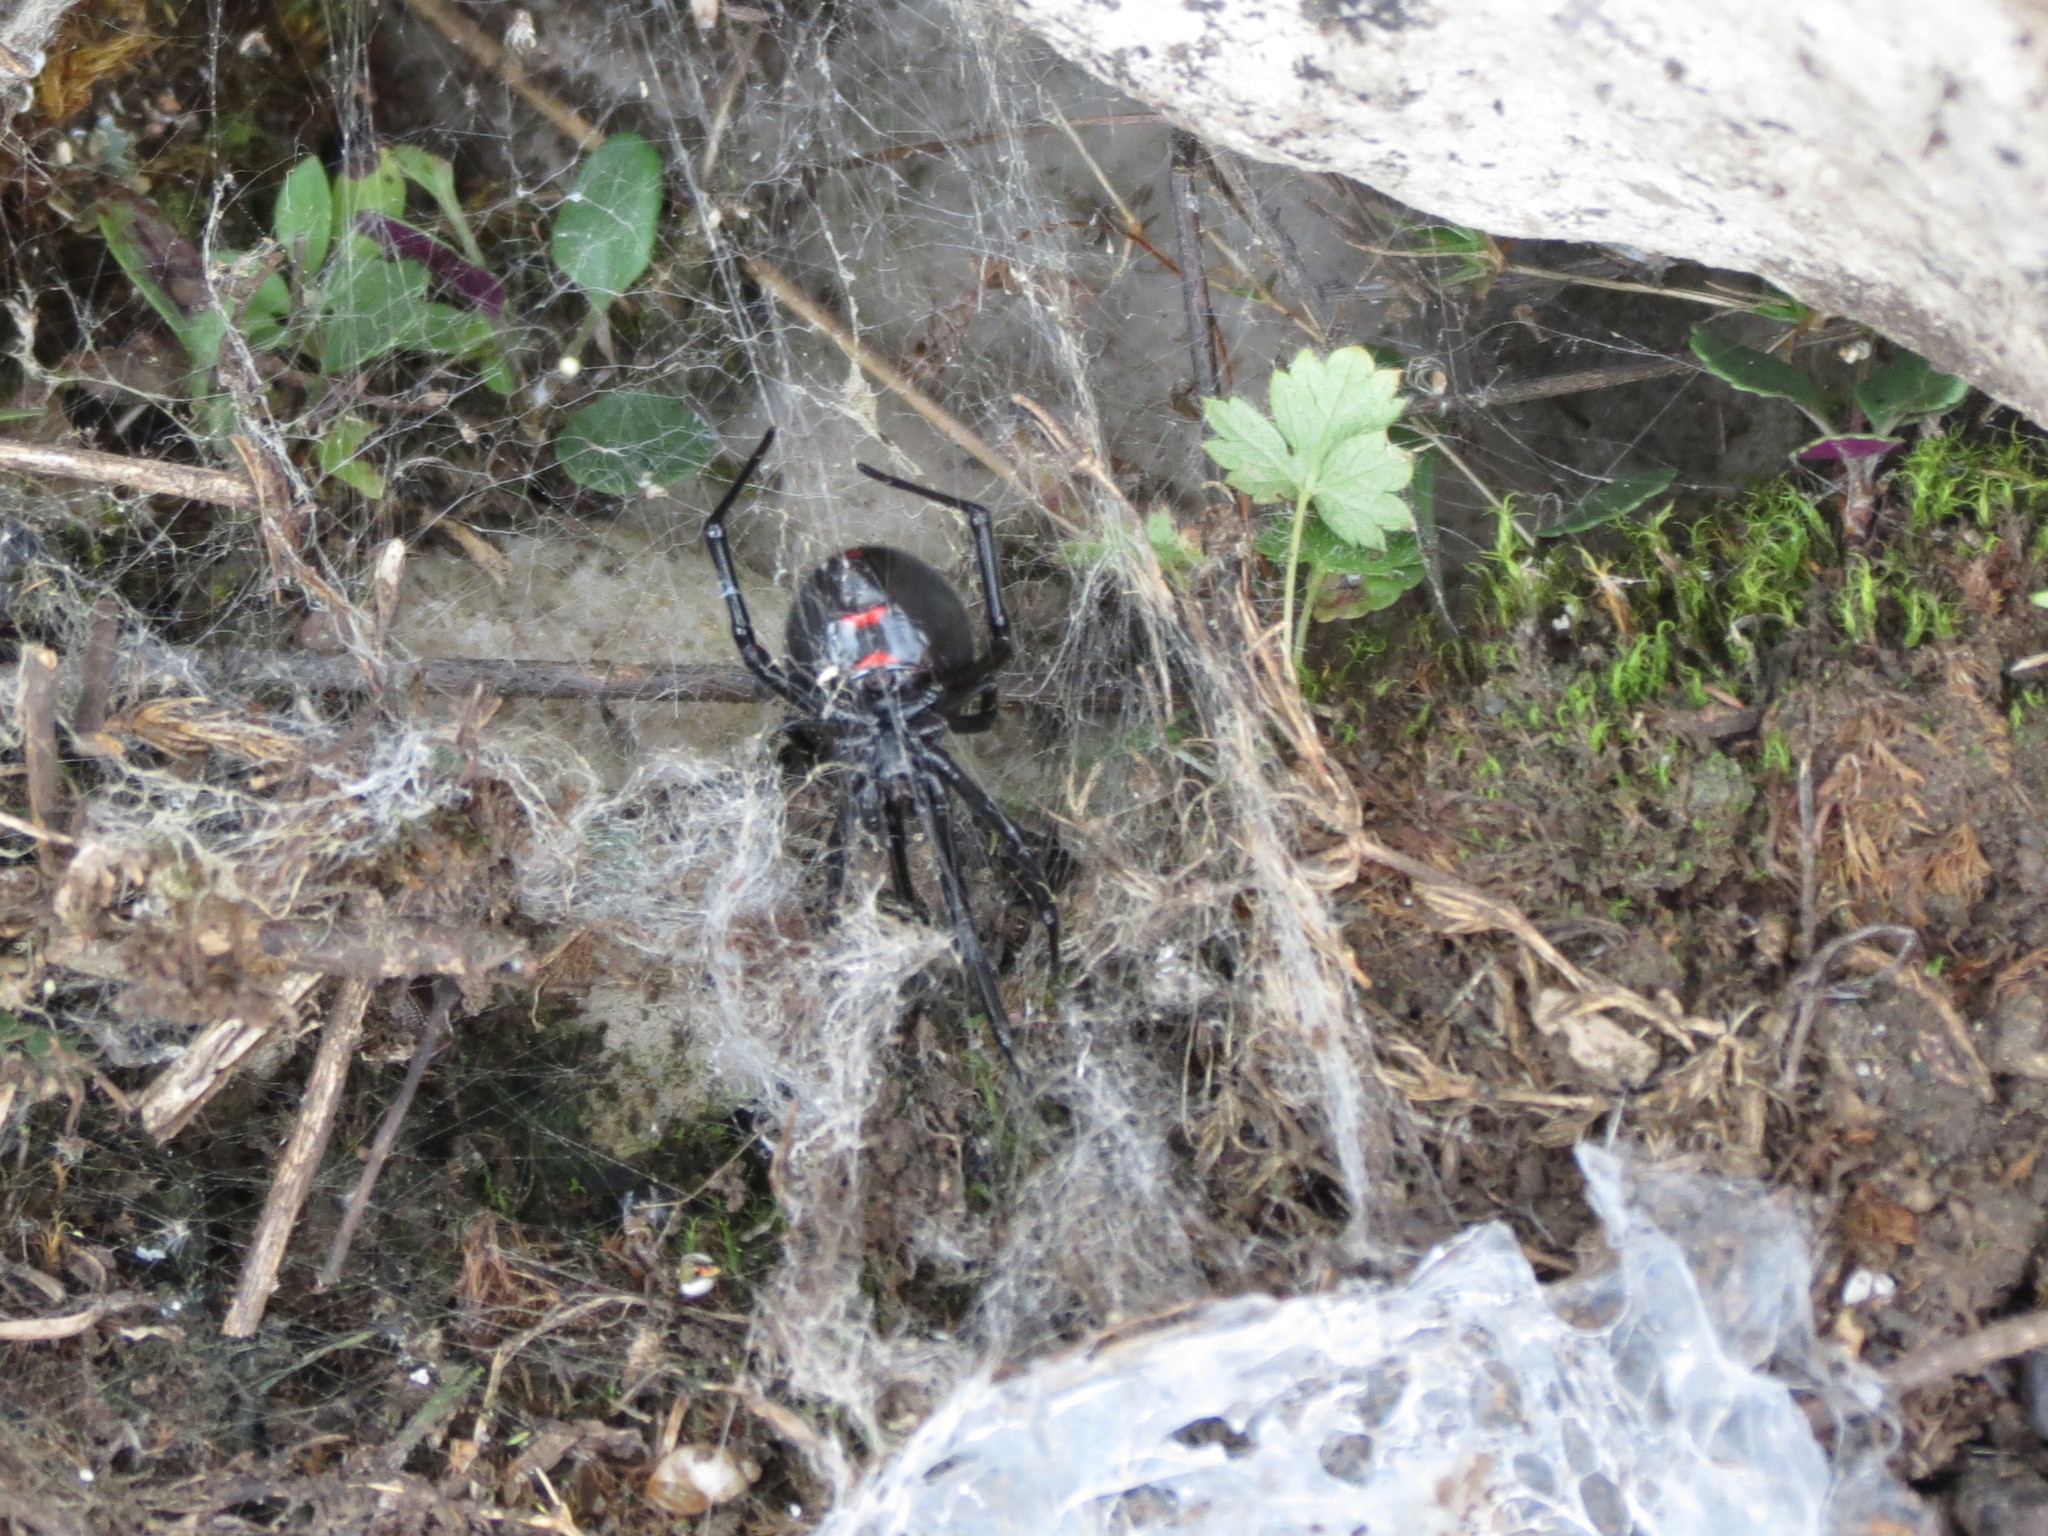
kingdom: Animalia
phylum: Arthropoda
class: Arachnida
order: Araneae
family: Theridiidae
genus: Latrodectus
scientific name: Latrodectus variolus
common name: Northern black widow
